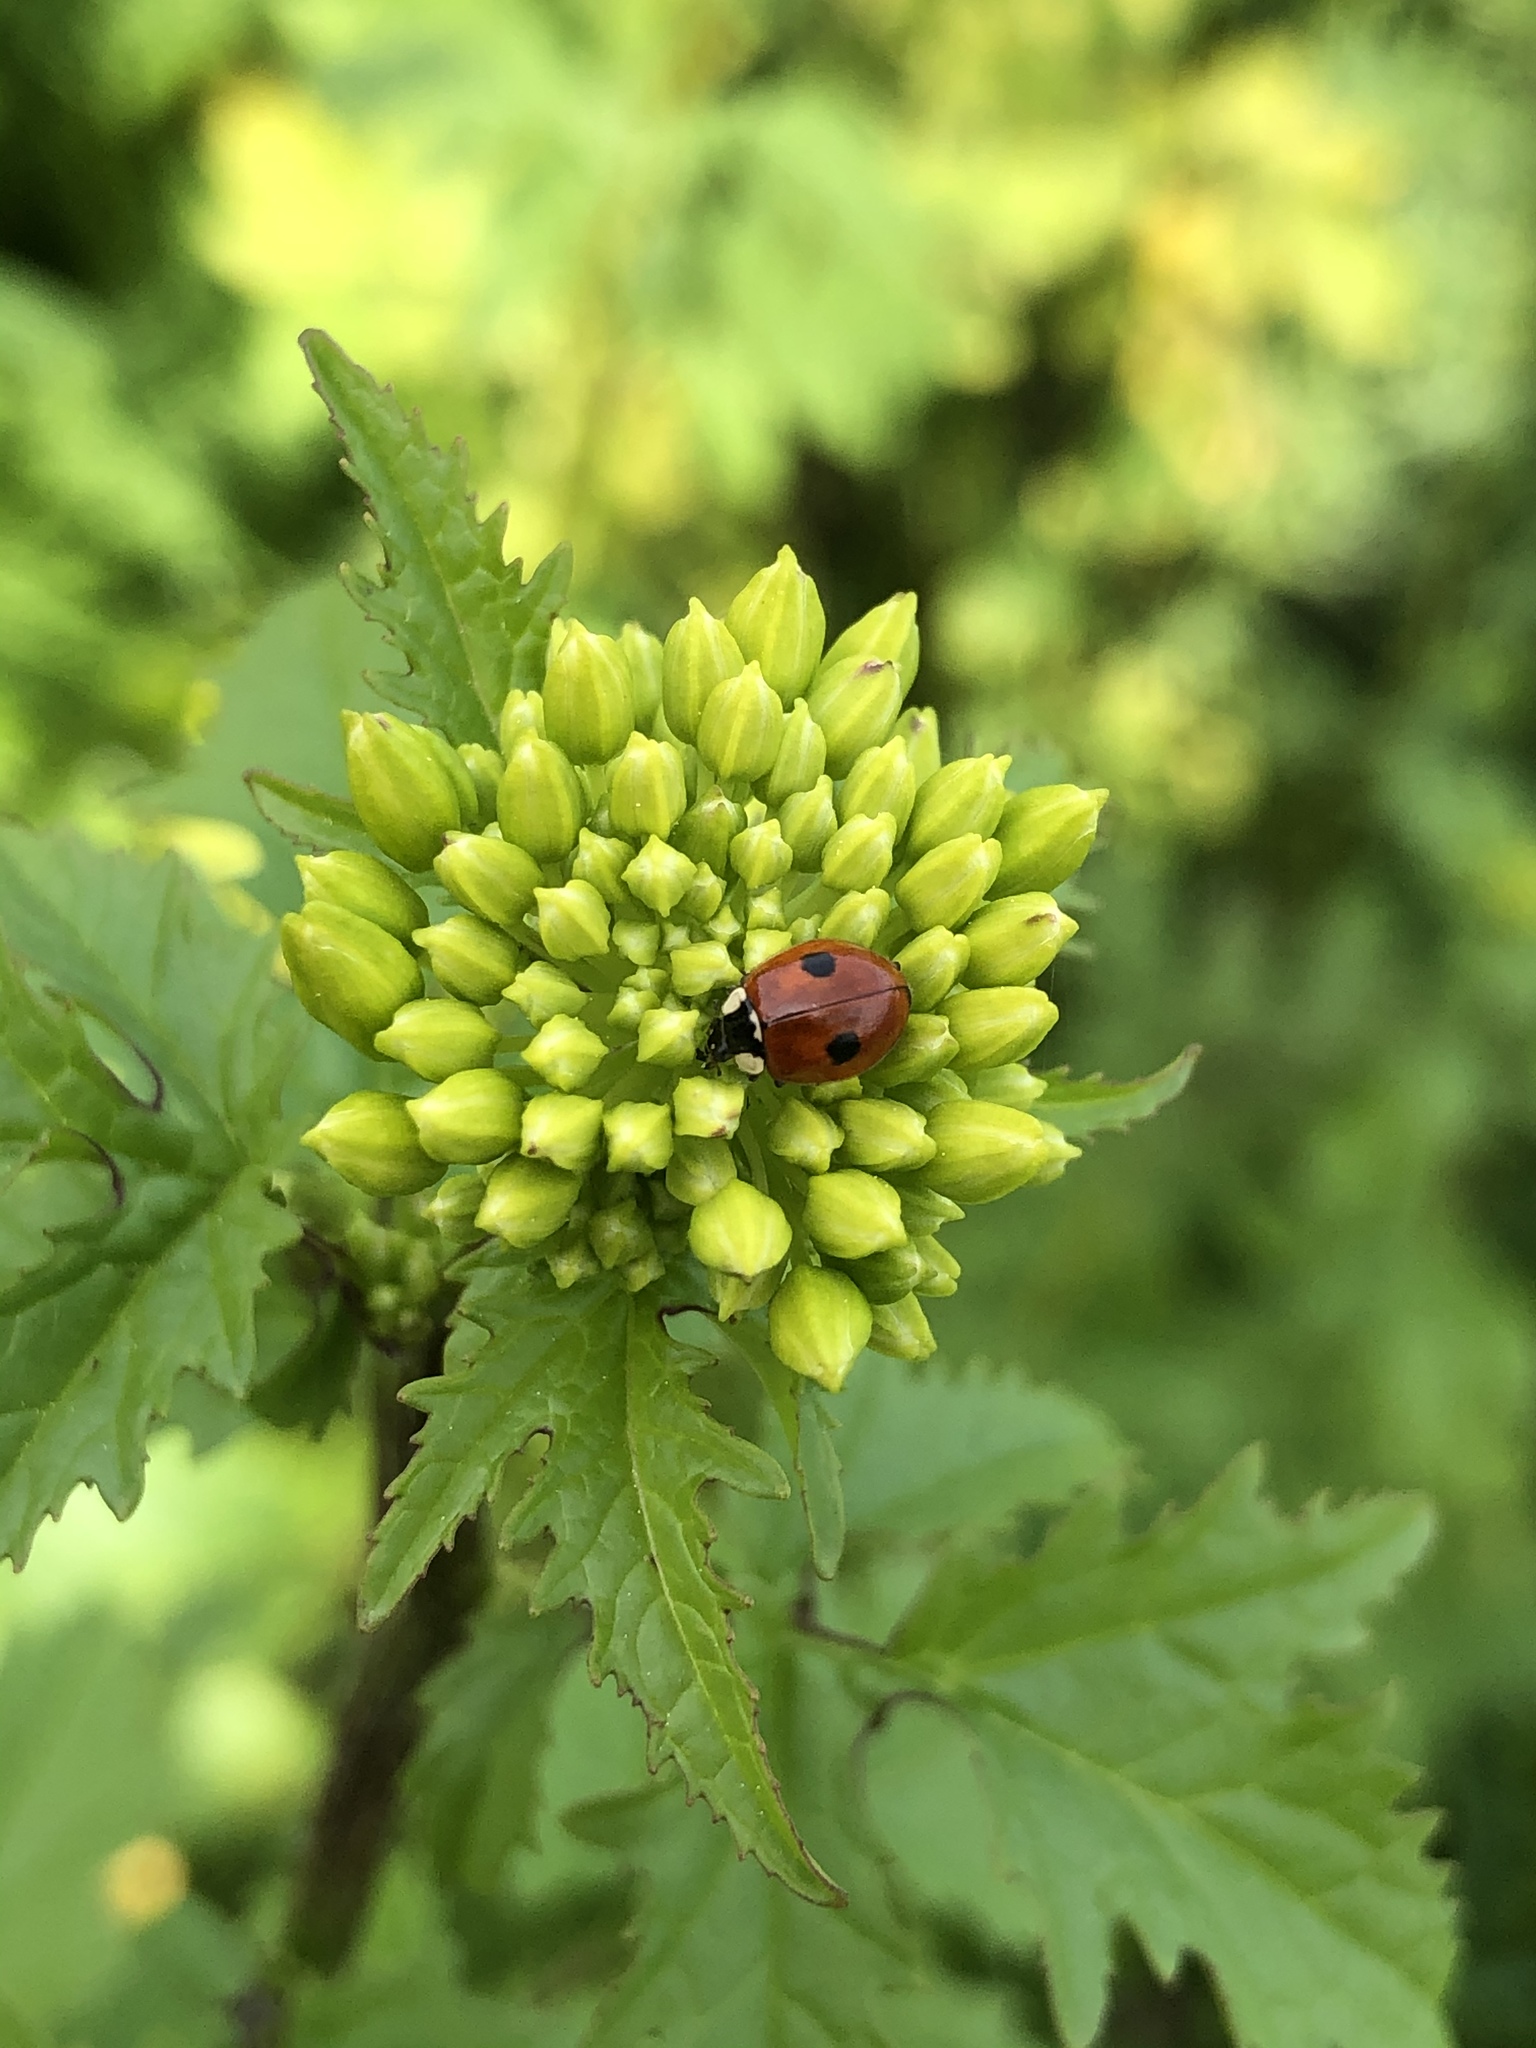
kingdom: Animalia
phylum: Arthropoda
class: Insecta
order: Coleoptera
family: Coccinellidae
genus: Adalia
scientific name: Adalia bipunctata
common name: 2-spot ladybird
